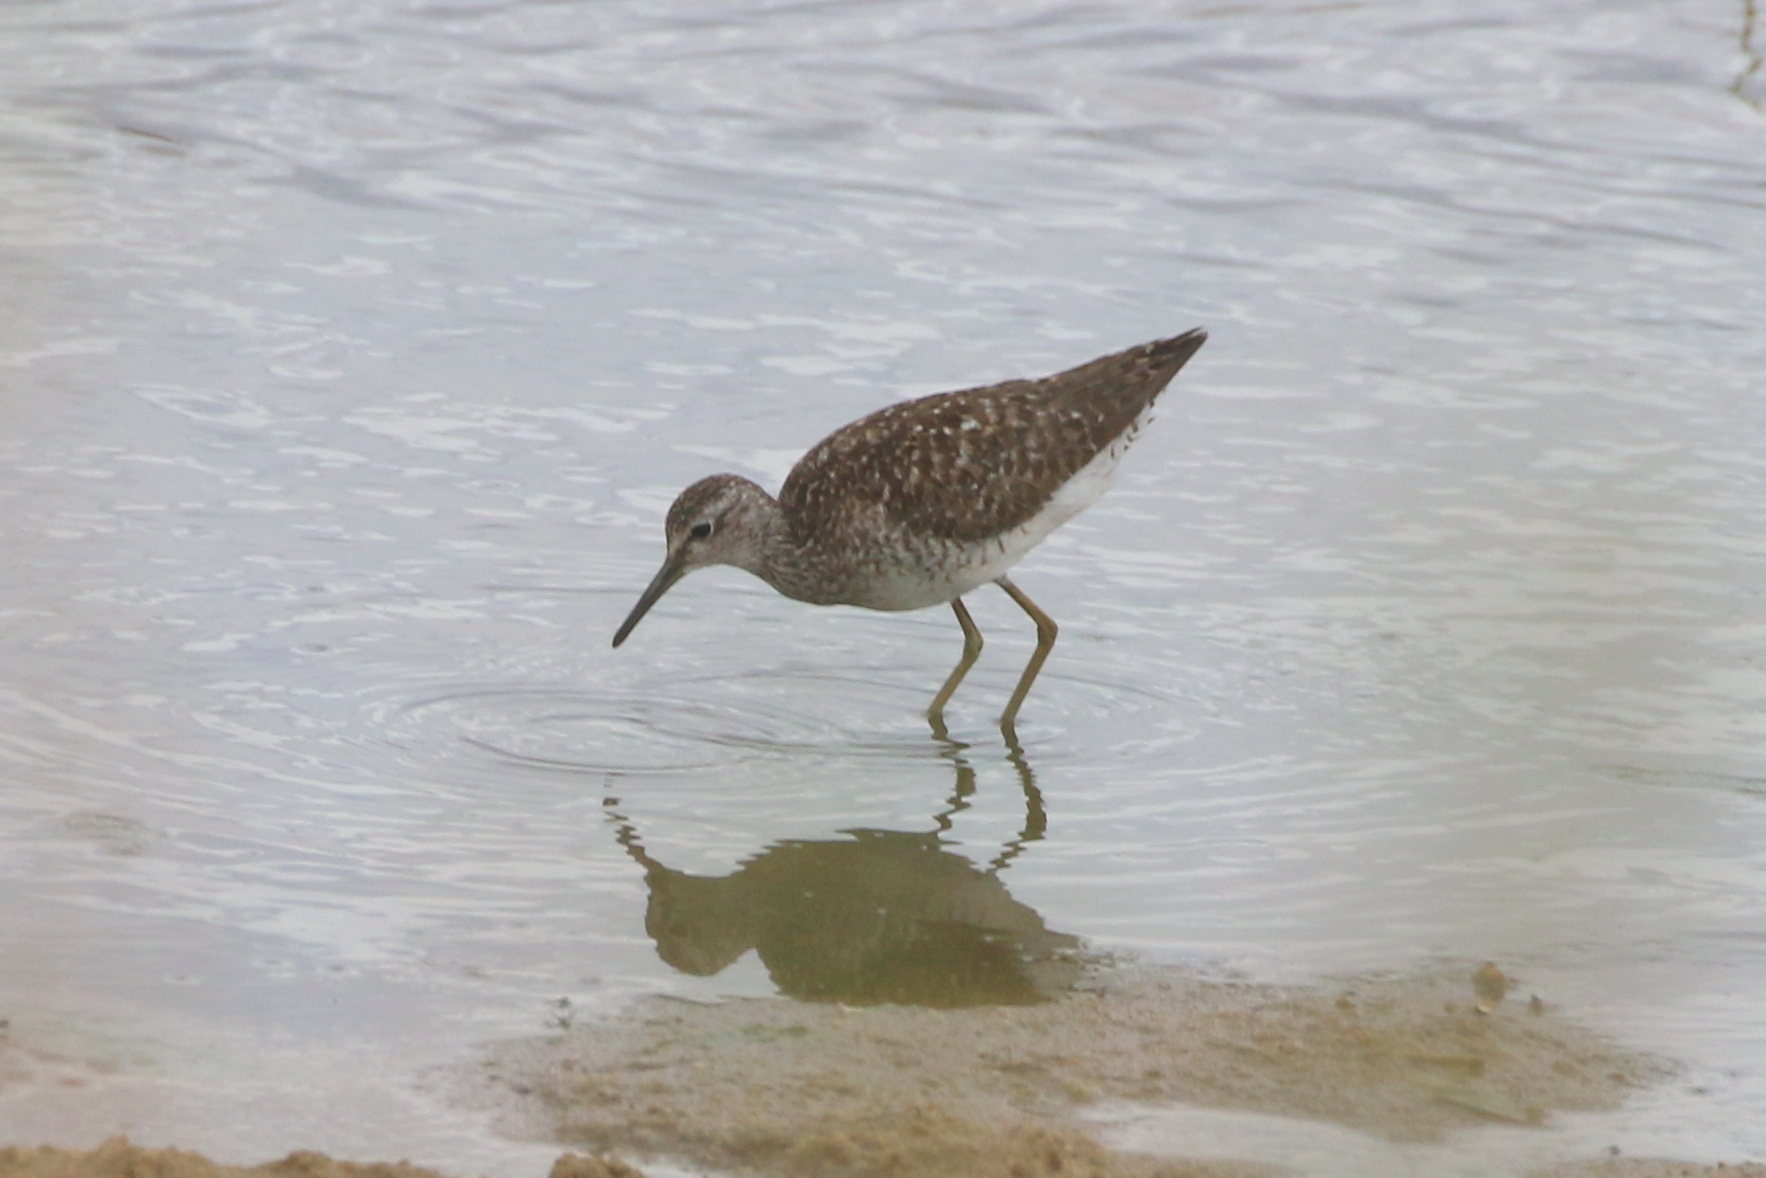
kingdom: Animalia
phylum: Chordata
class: Aves
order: Charadriiformes
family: Scolopacidae
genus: Tringa
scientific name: Tringa glareola
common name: Wood sandpiper
